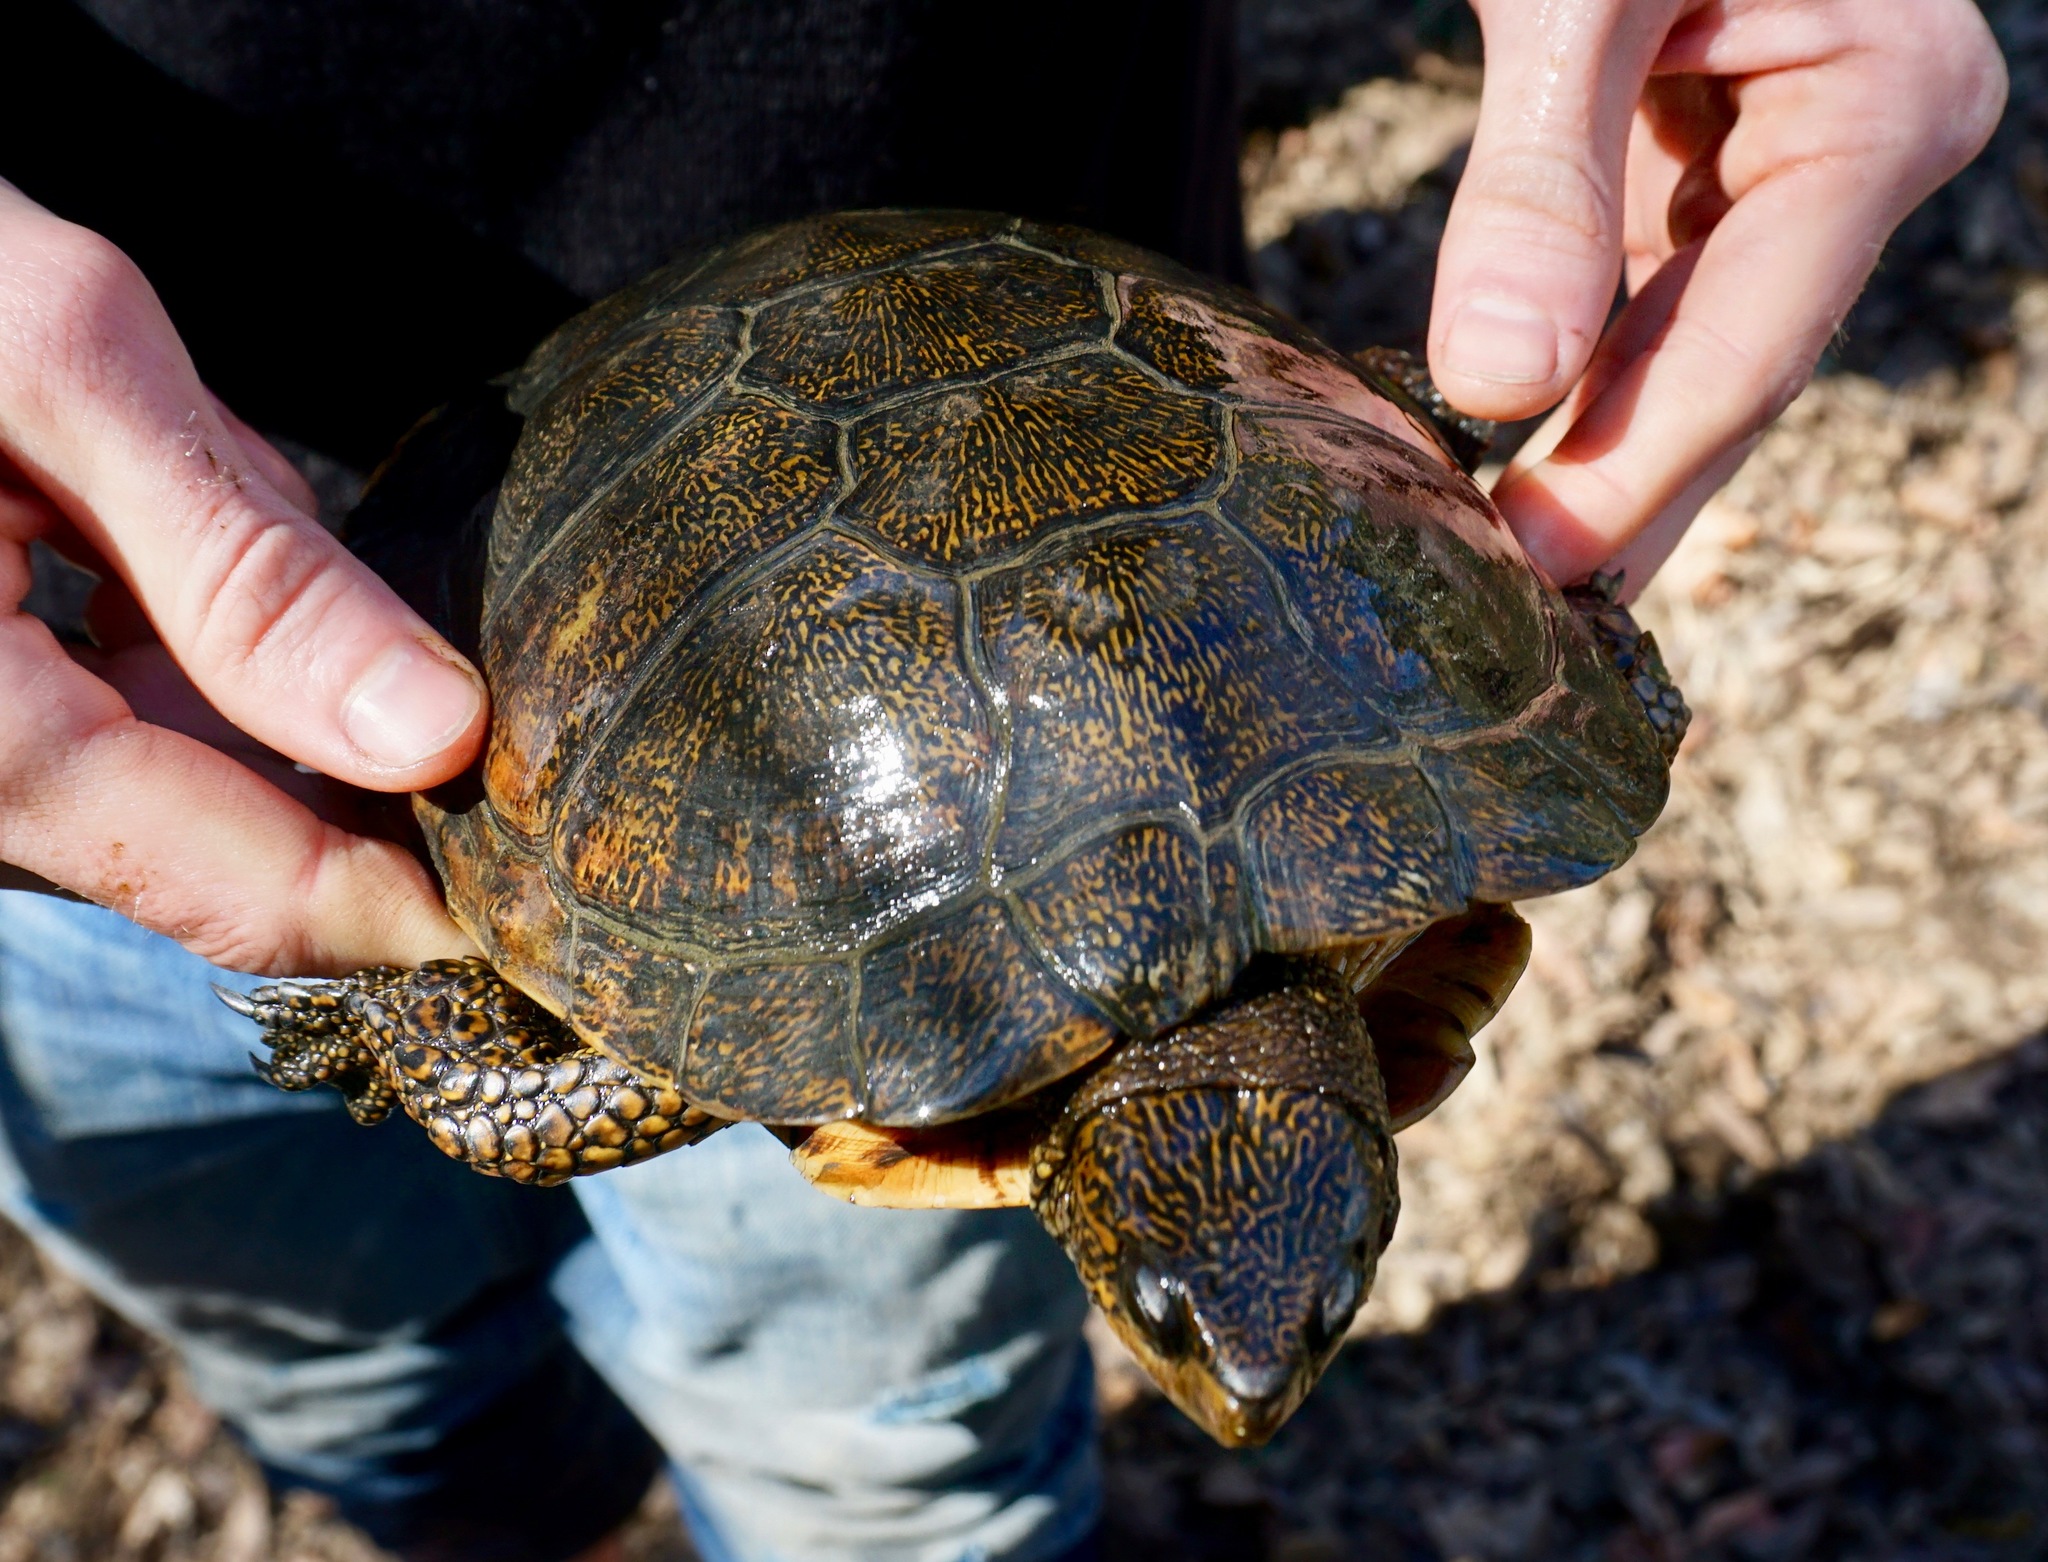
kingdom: Animalia
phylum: Chordata
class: Testudines
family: Emydidae
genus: Actinemys
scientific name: Actinemys marmorata
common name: Western pond turtle
